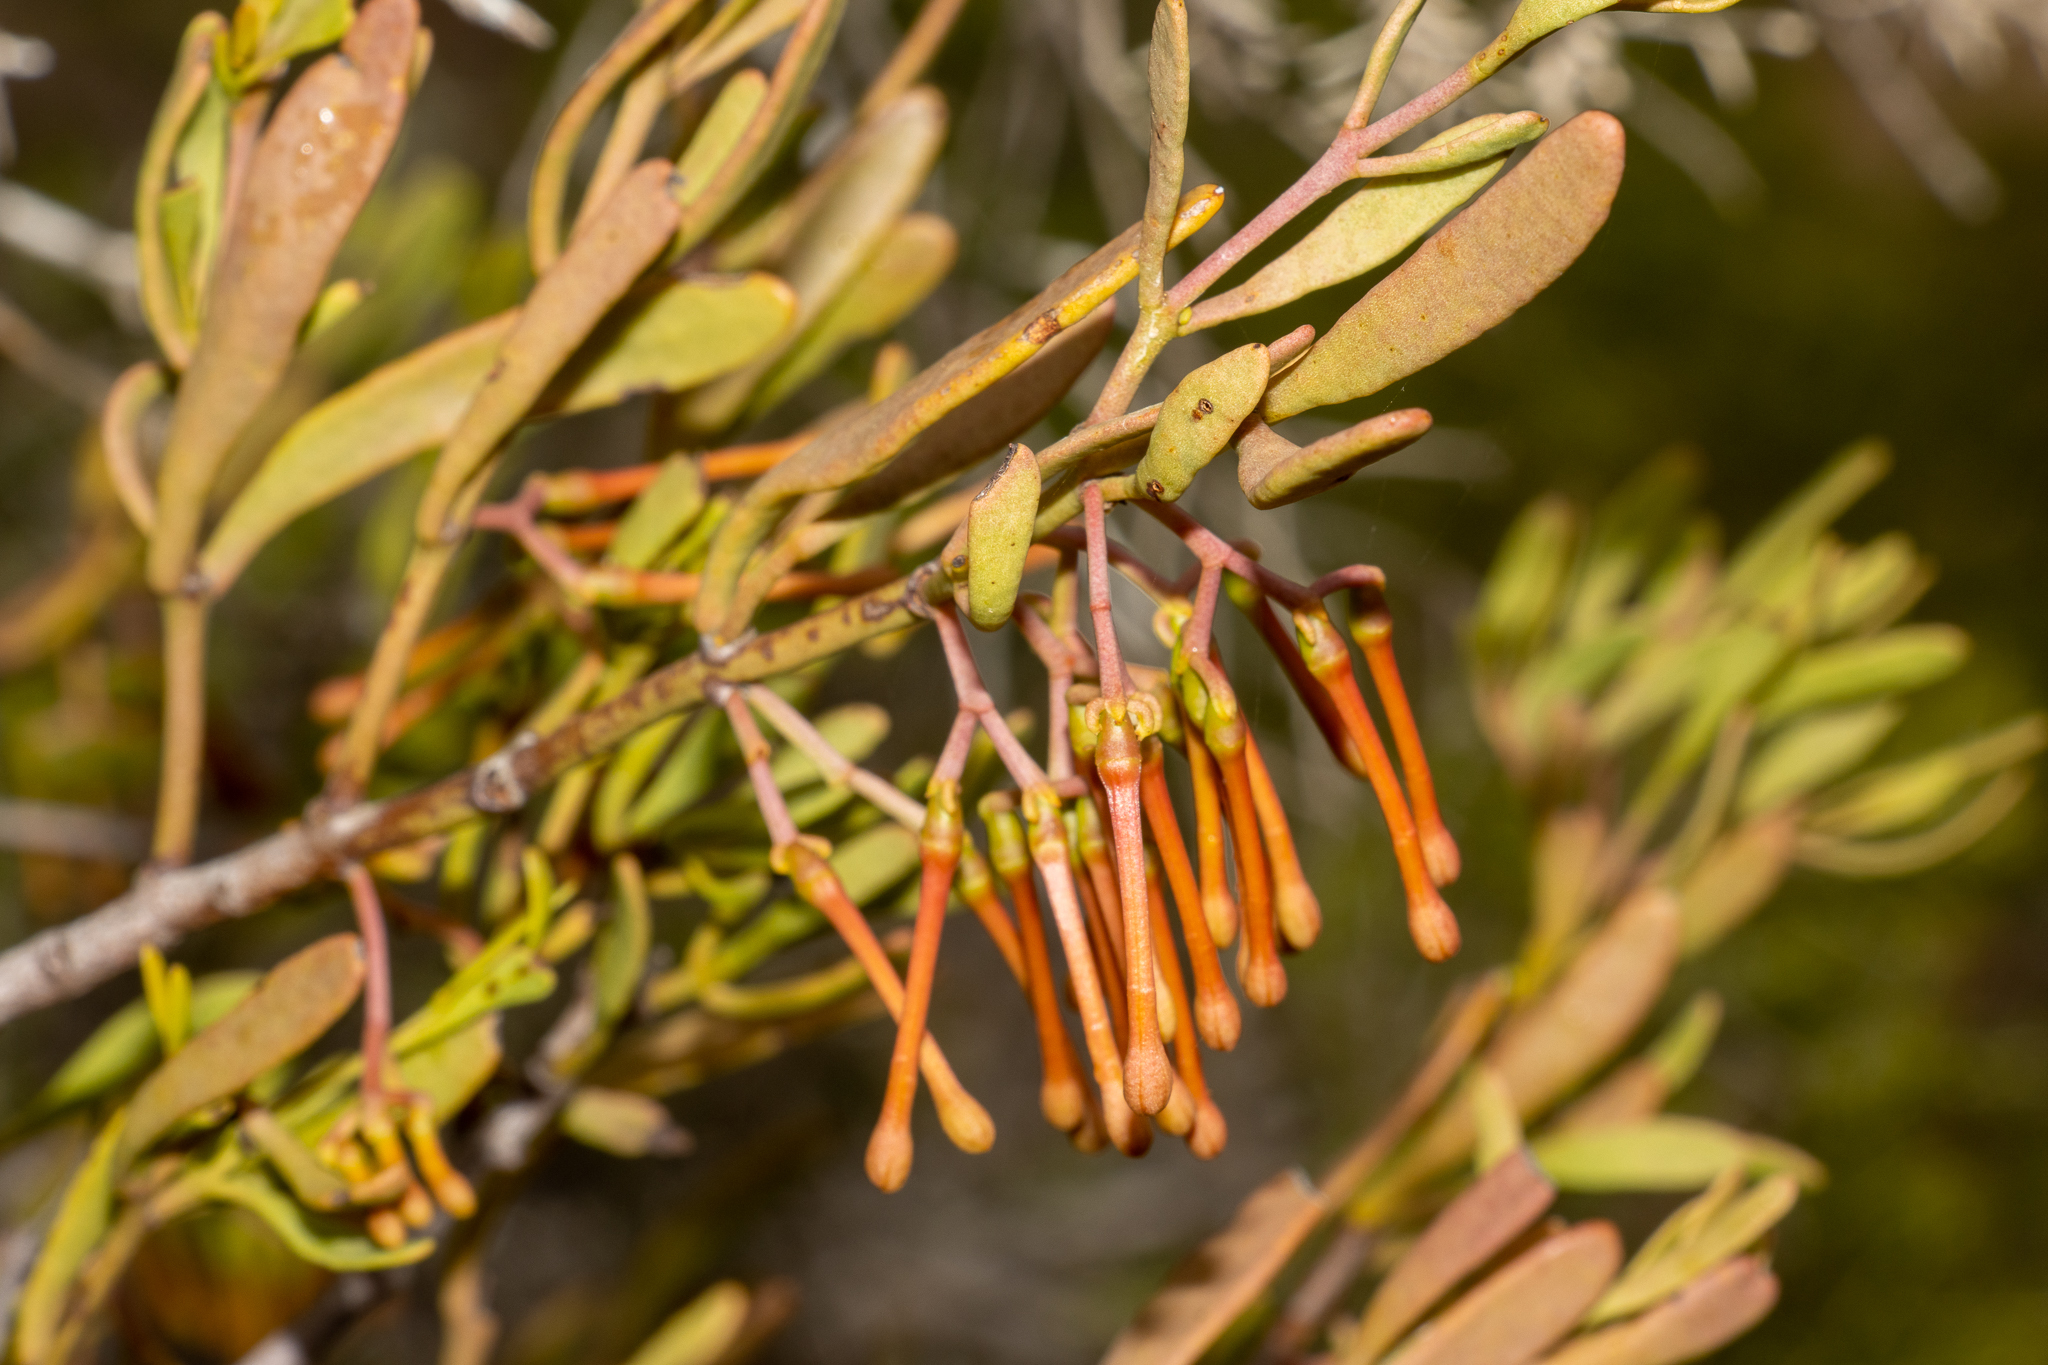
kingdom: Plantae
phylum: Tracheophyta
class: Magnoliopsida
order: Santalales
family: Loranthaceae
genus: Amyema
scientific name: Amyema melaleucae
